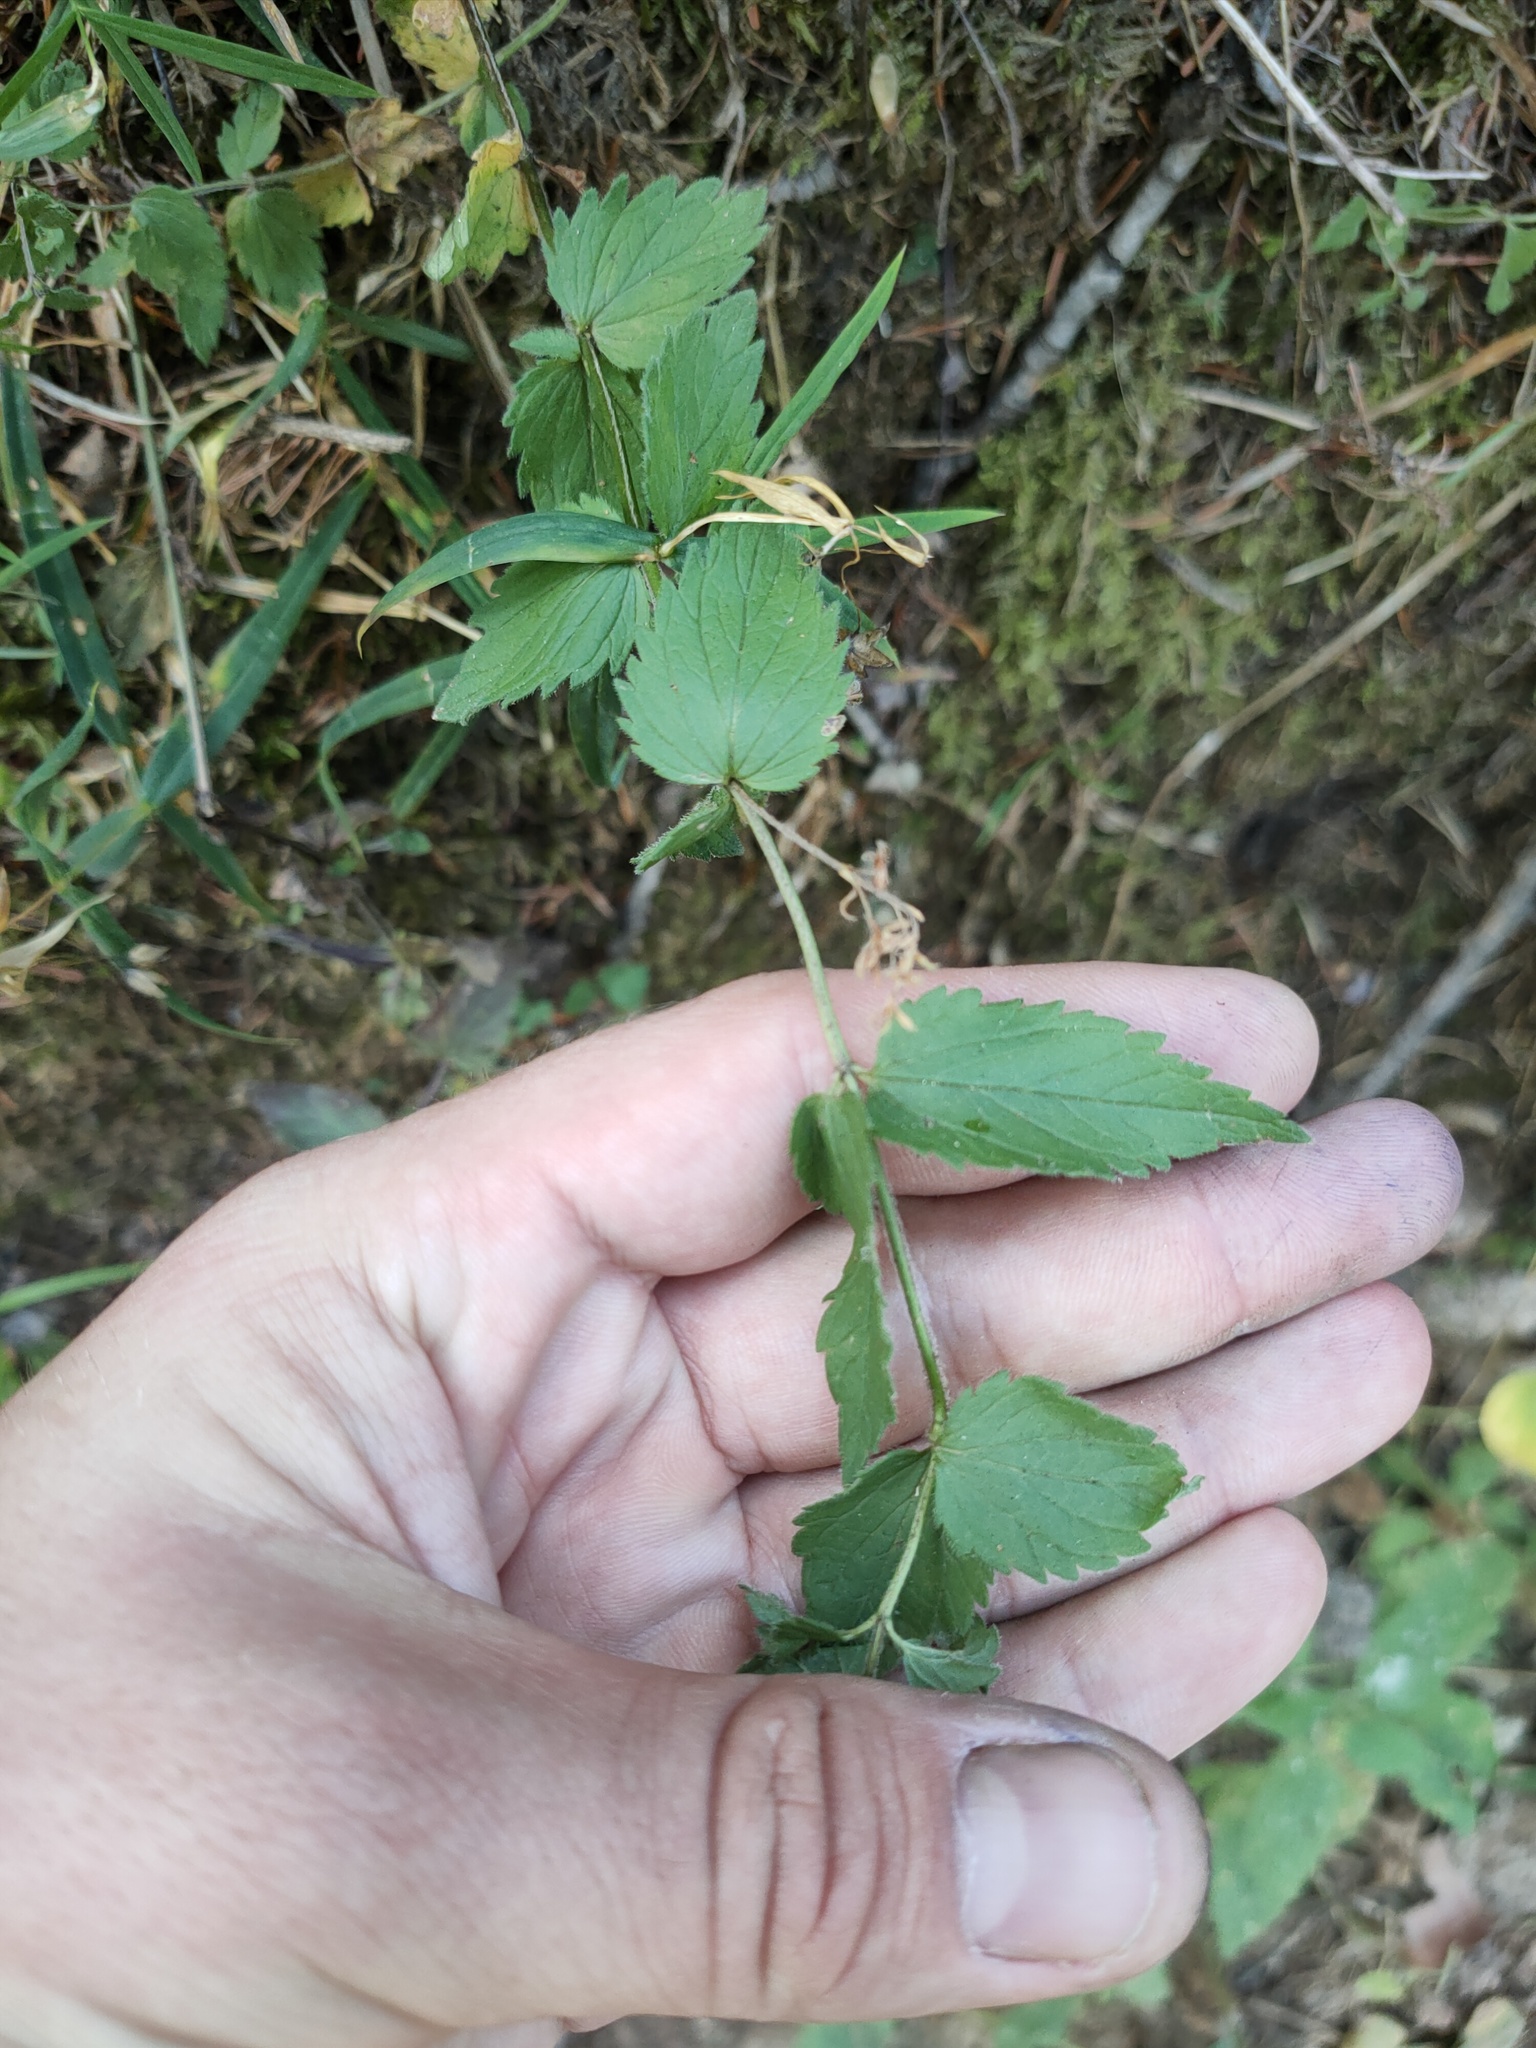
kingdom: Plantae
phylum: Tracheophyta
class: Magnoliopsida
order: Lamiales
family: Plantaginaceae
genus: Veronica
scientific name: Veronica chamaedrys
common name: Germander speedwell
